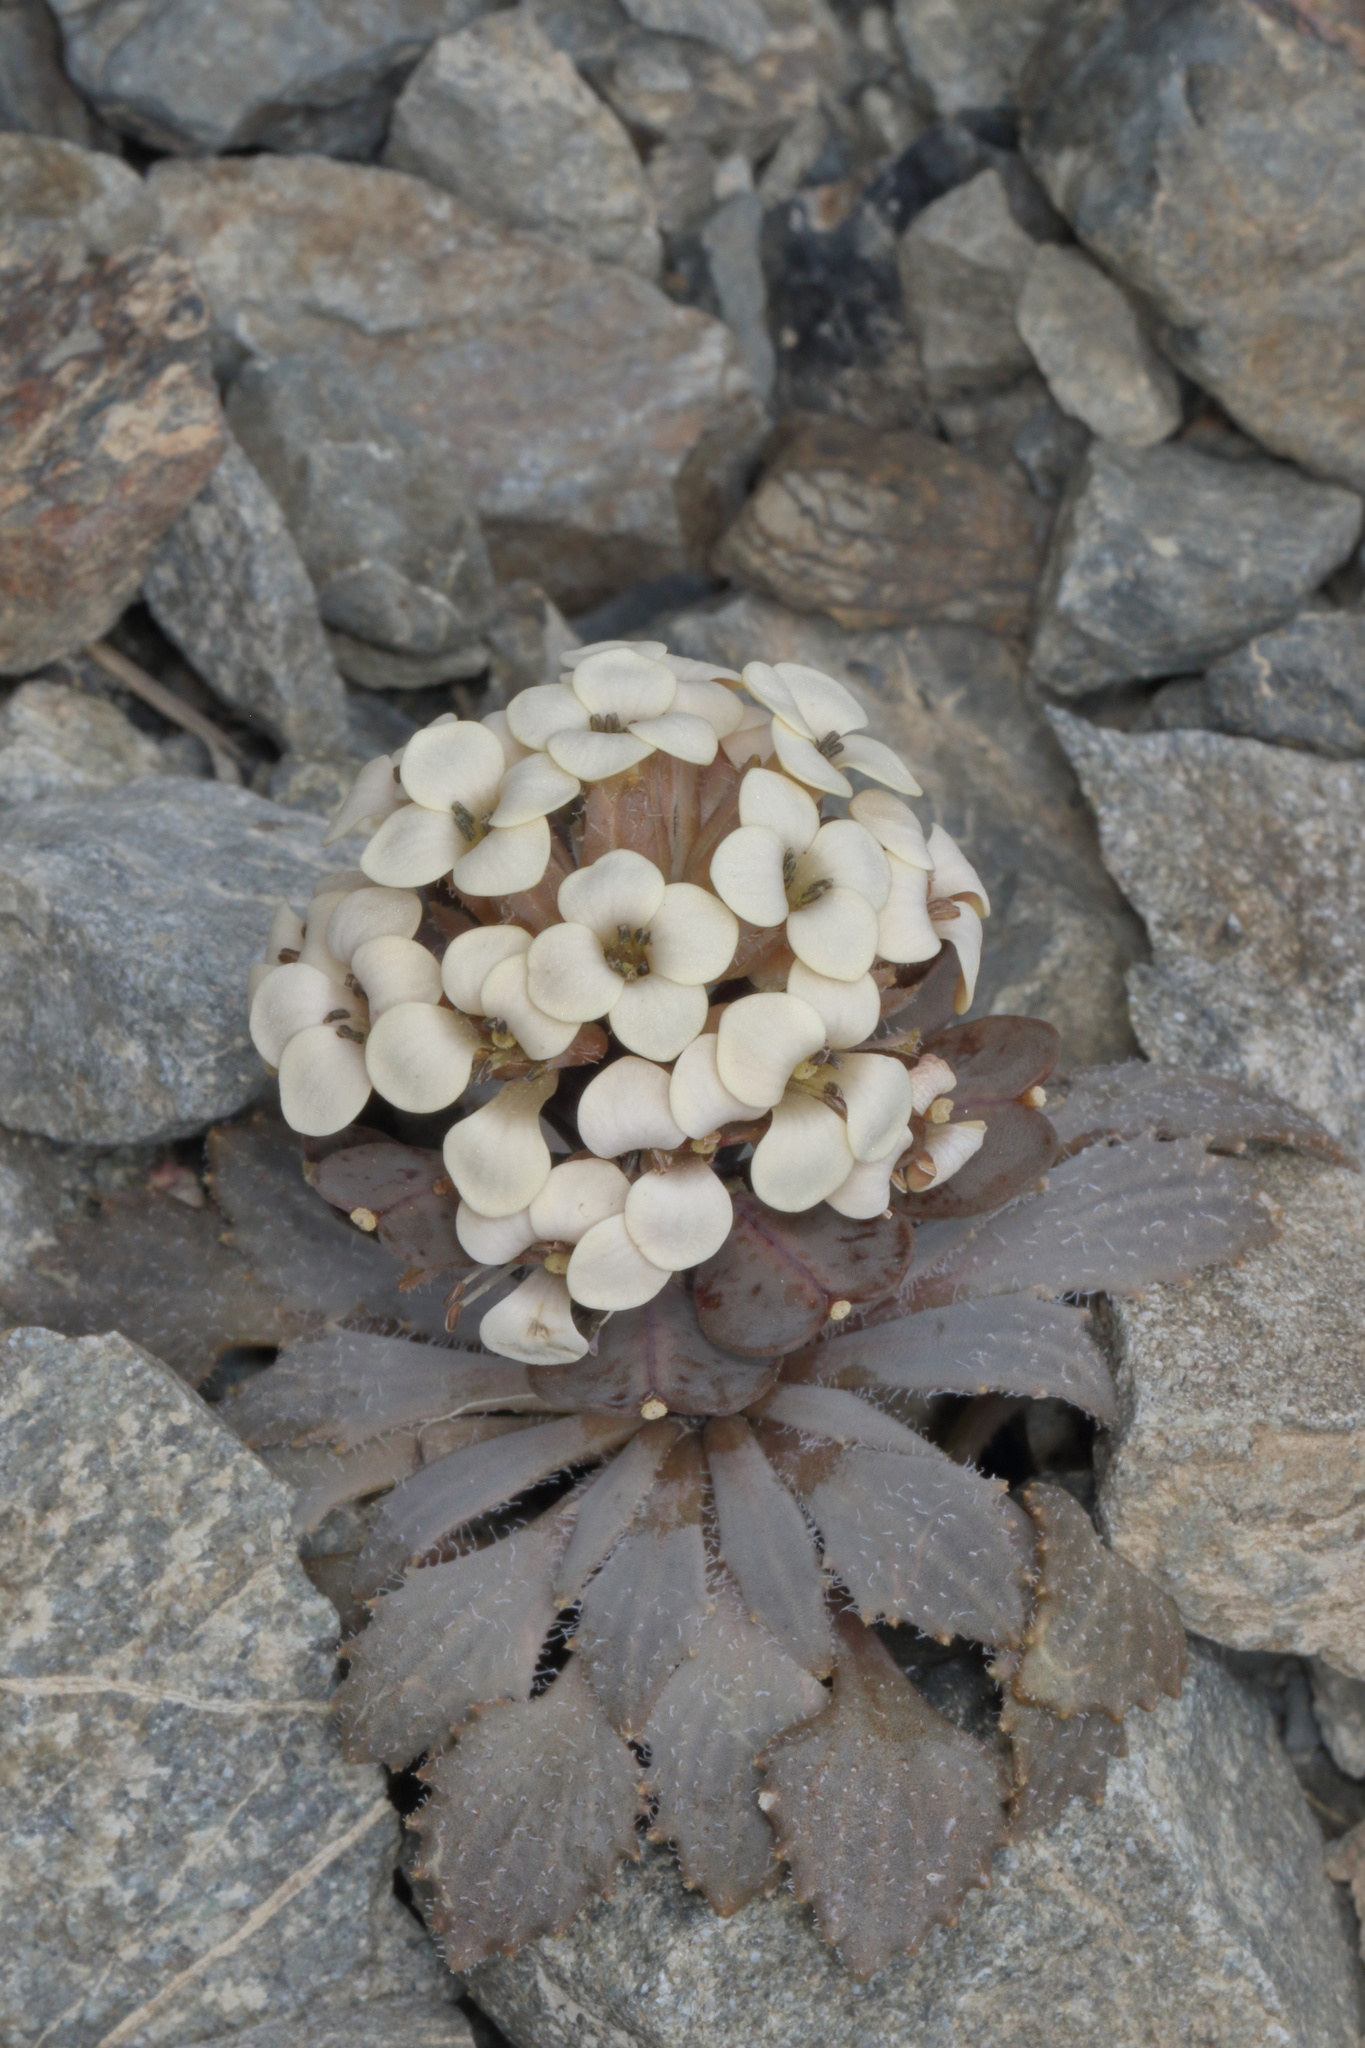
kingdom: Plantae
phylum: Tracheophyta
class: Magnoliopsida
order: Brassicales
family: Brassicaceae
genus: Notothlaspi
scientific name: Notothlaspi rosulatum
